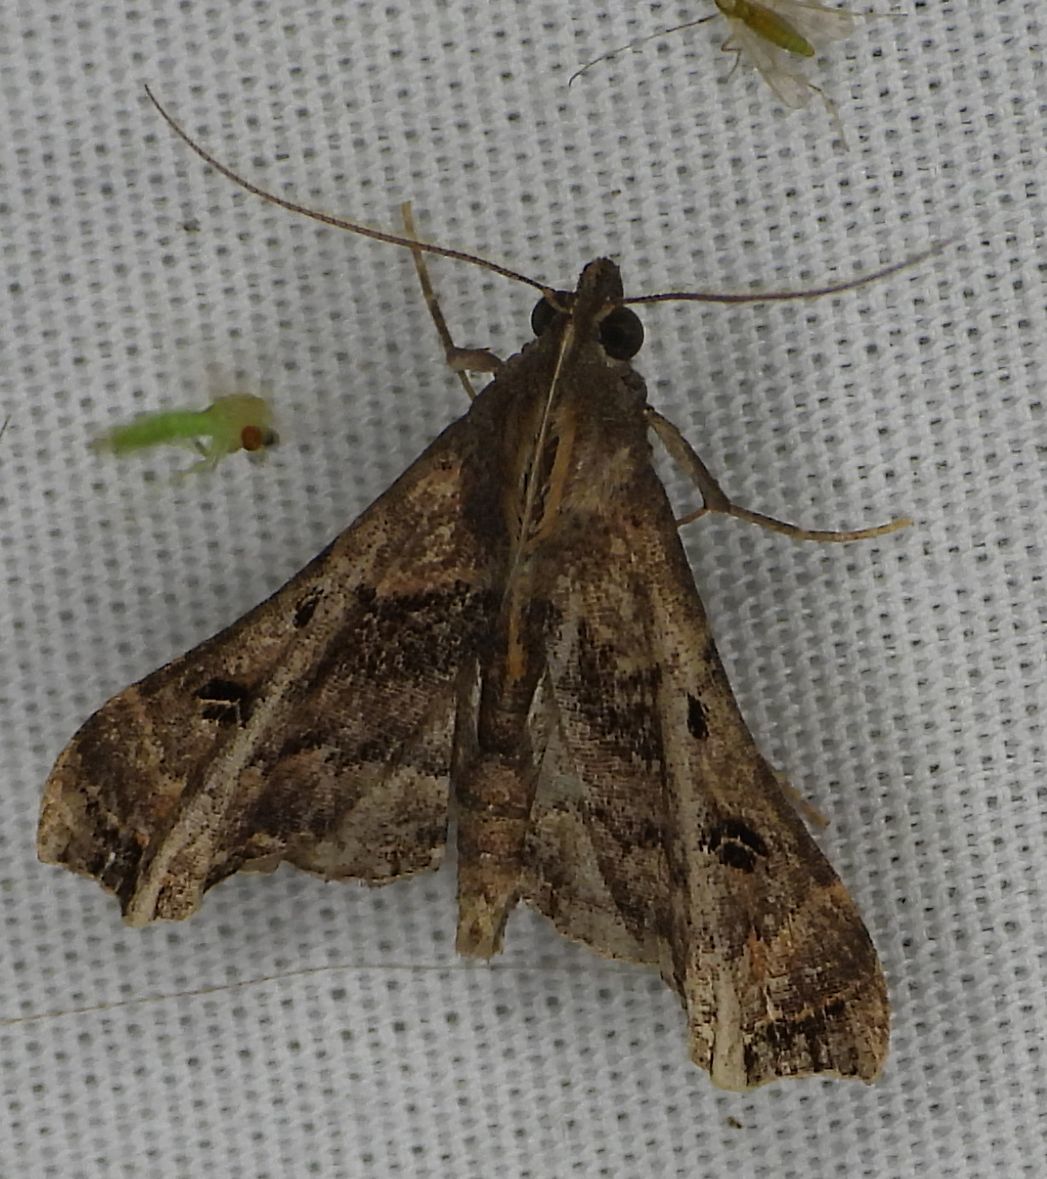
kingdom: Animalia
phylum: Arthropoda
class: Insecta
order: Lepidoptera
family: Erebidae
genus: Palthis
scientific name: Palthis asopialis
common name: Faint-spotted palthis moth
